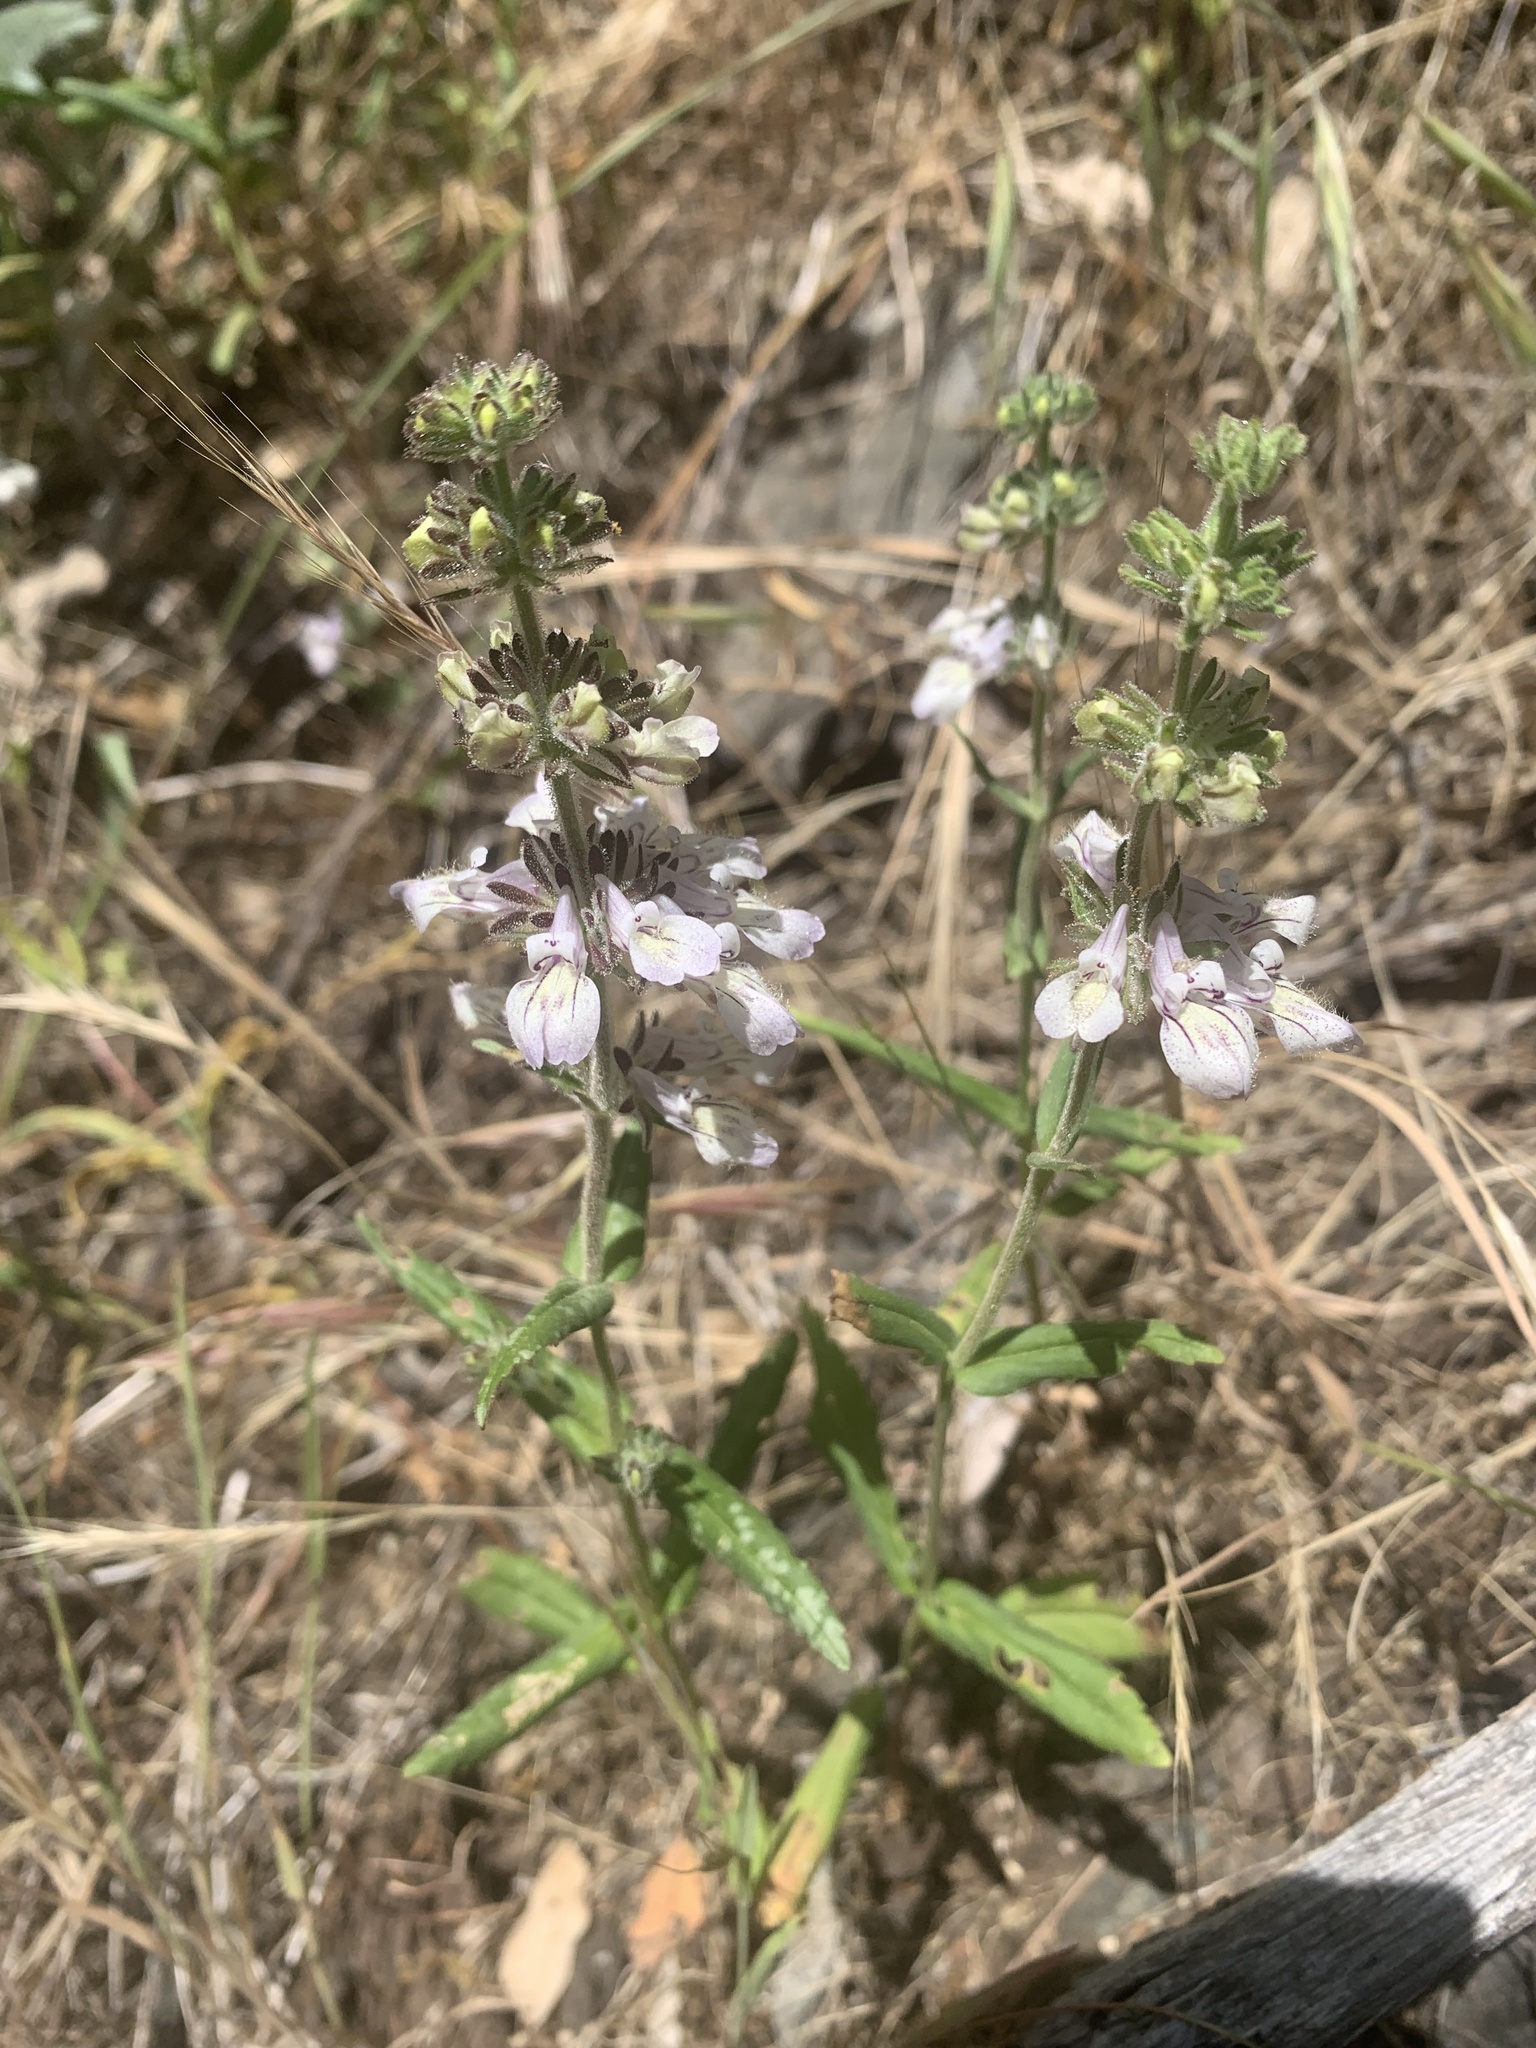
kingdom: Plantae
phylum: Tracheophyta
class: Magnoliopsida
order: Lamiales
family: Plantaginaceae
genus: Collinsia
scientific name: Collinsia tinctoria
